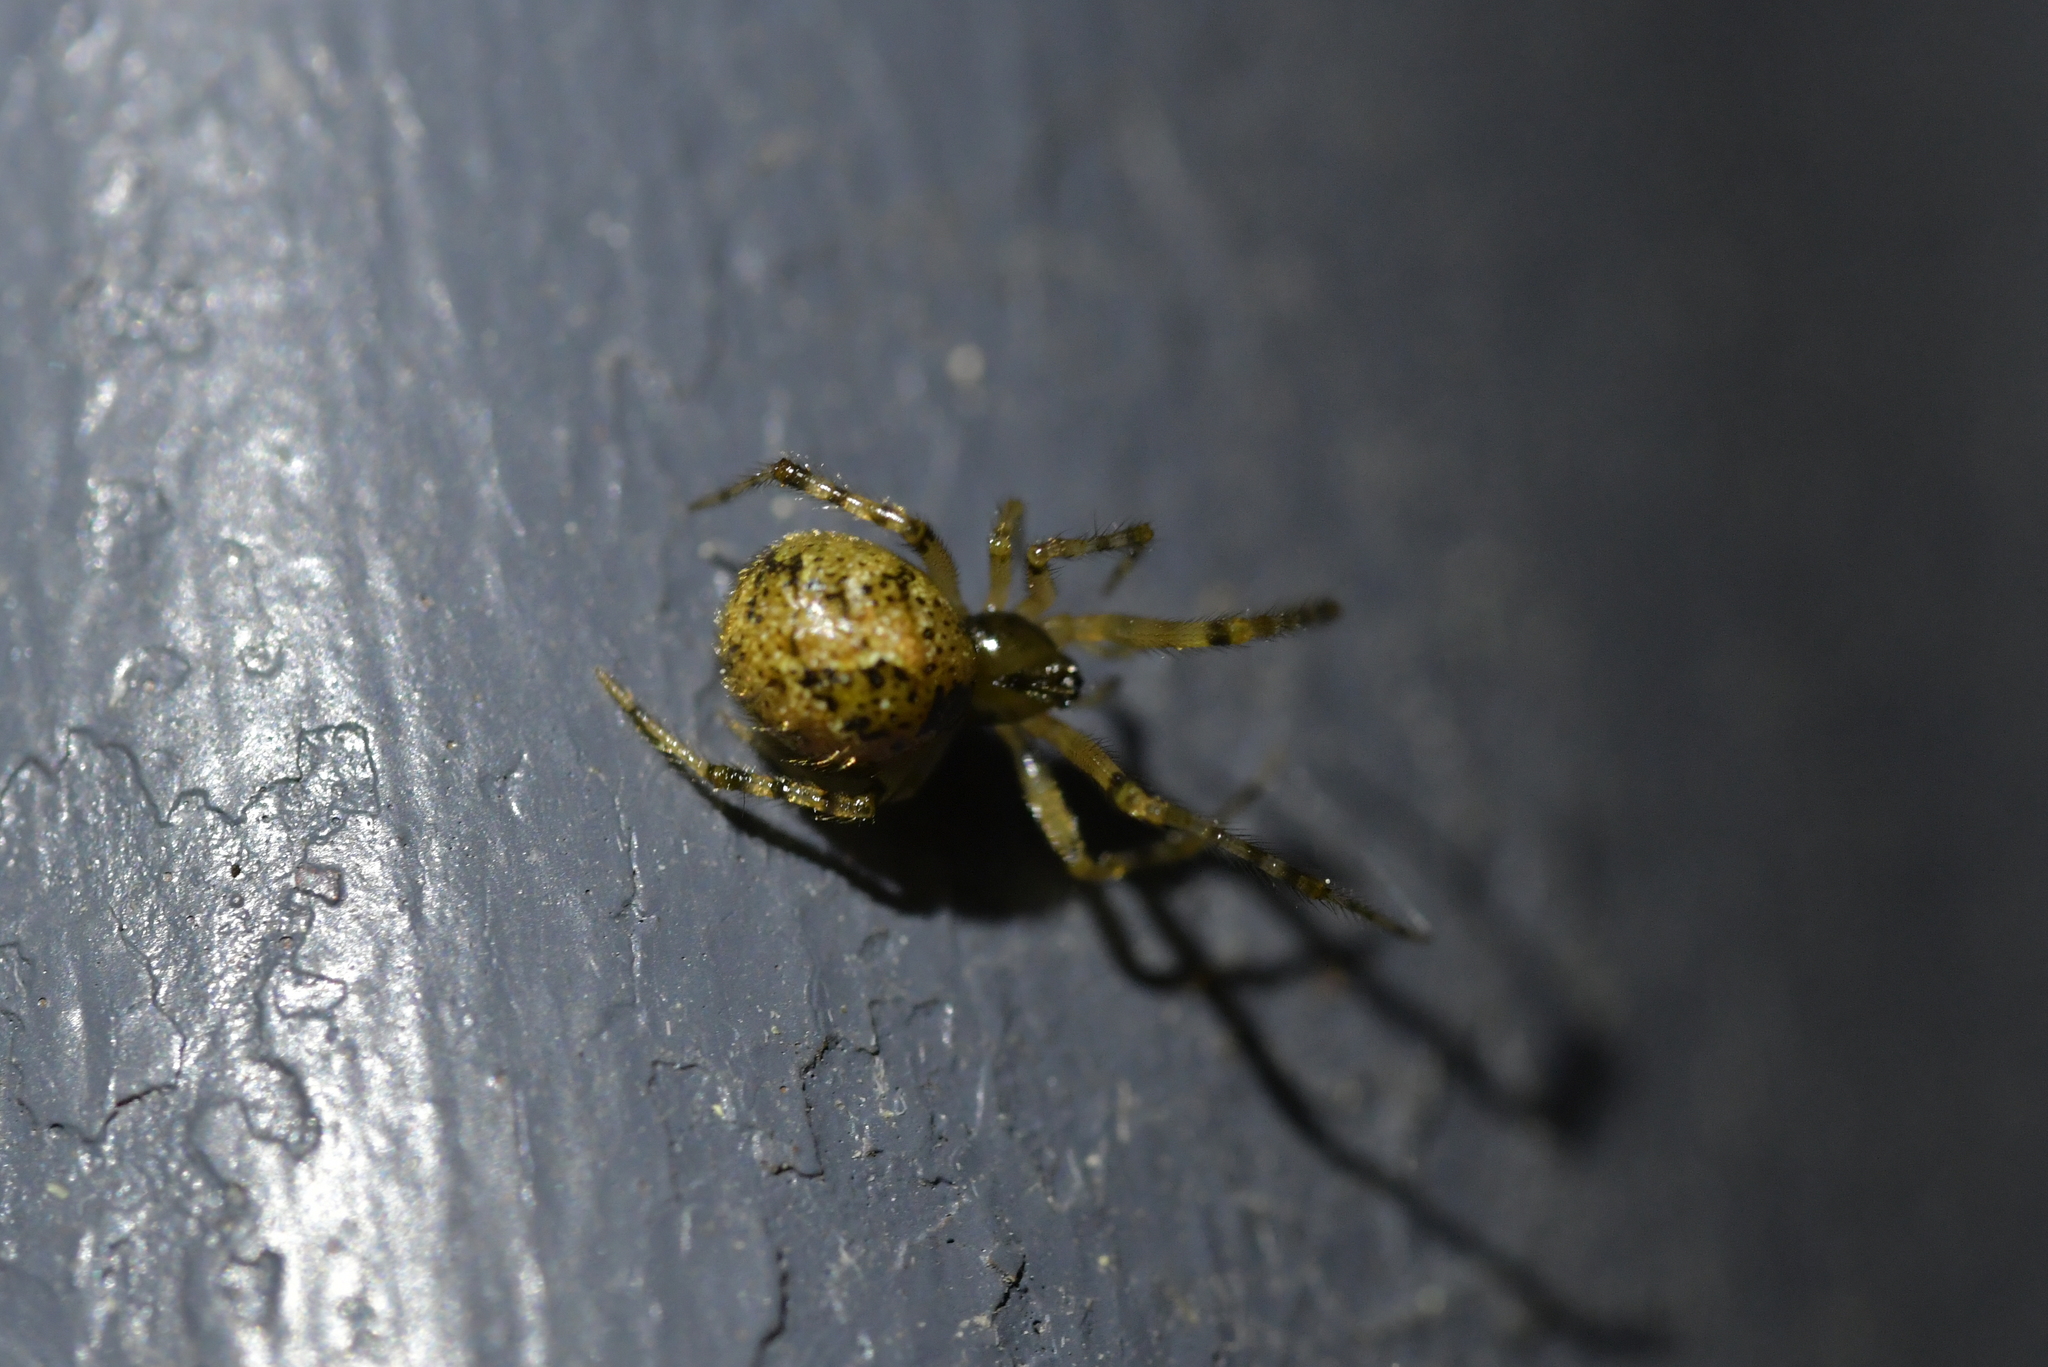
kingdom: Animalia
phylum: Arthropoda
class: Arachnida
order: Araneae
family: Theridiidae
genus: Cryptachaea
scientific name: Cryptachaea veruculata
